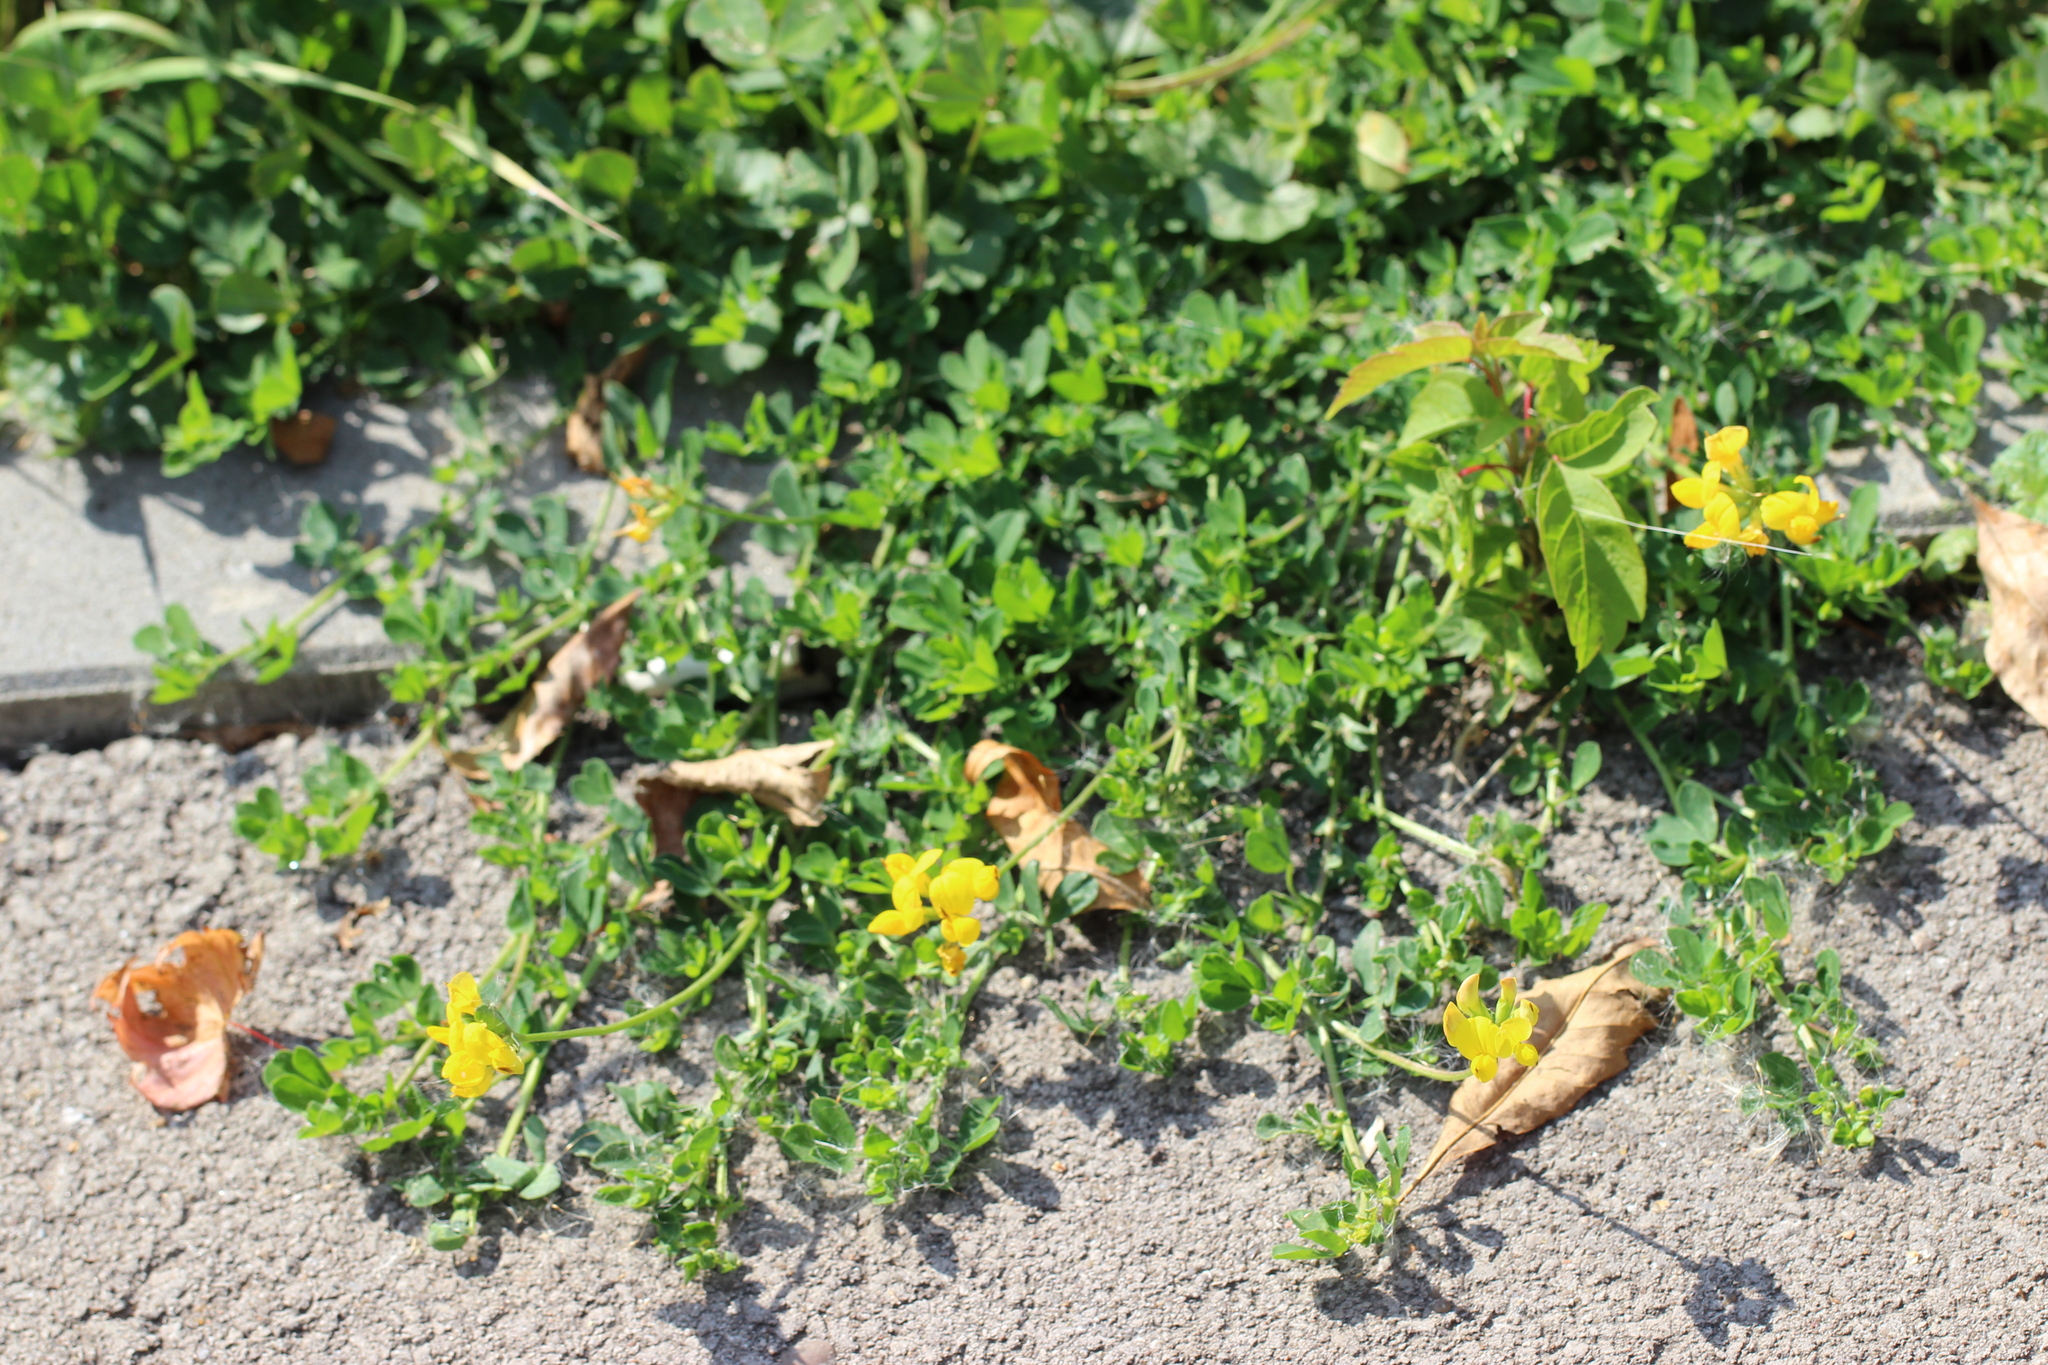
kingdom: Plantae
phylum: Tracheophyta
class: Magnoliopsida
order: Fabales
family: Fabaceae
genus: Lotus
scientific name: Lotus corniculatus
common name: Common bird's-foot-trefoil
